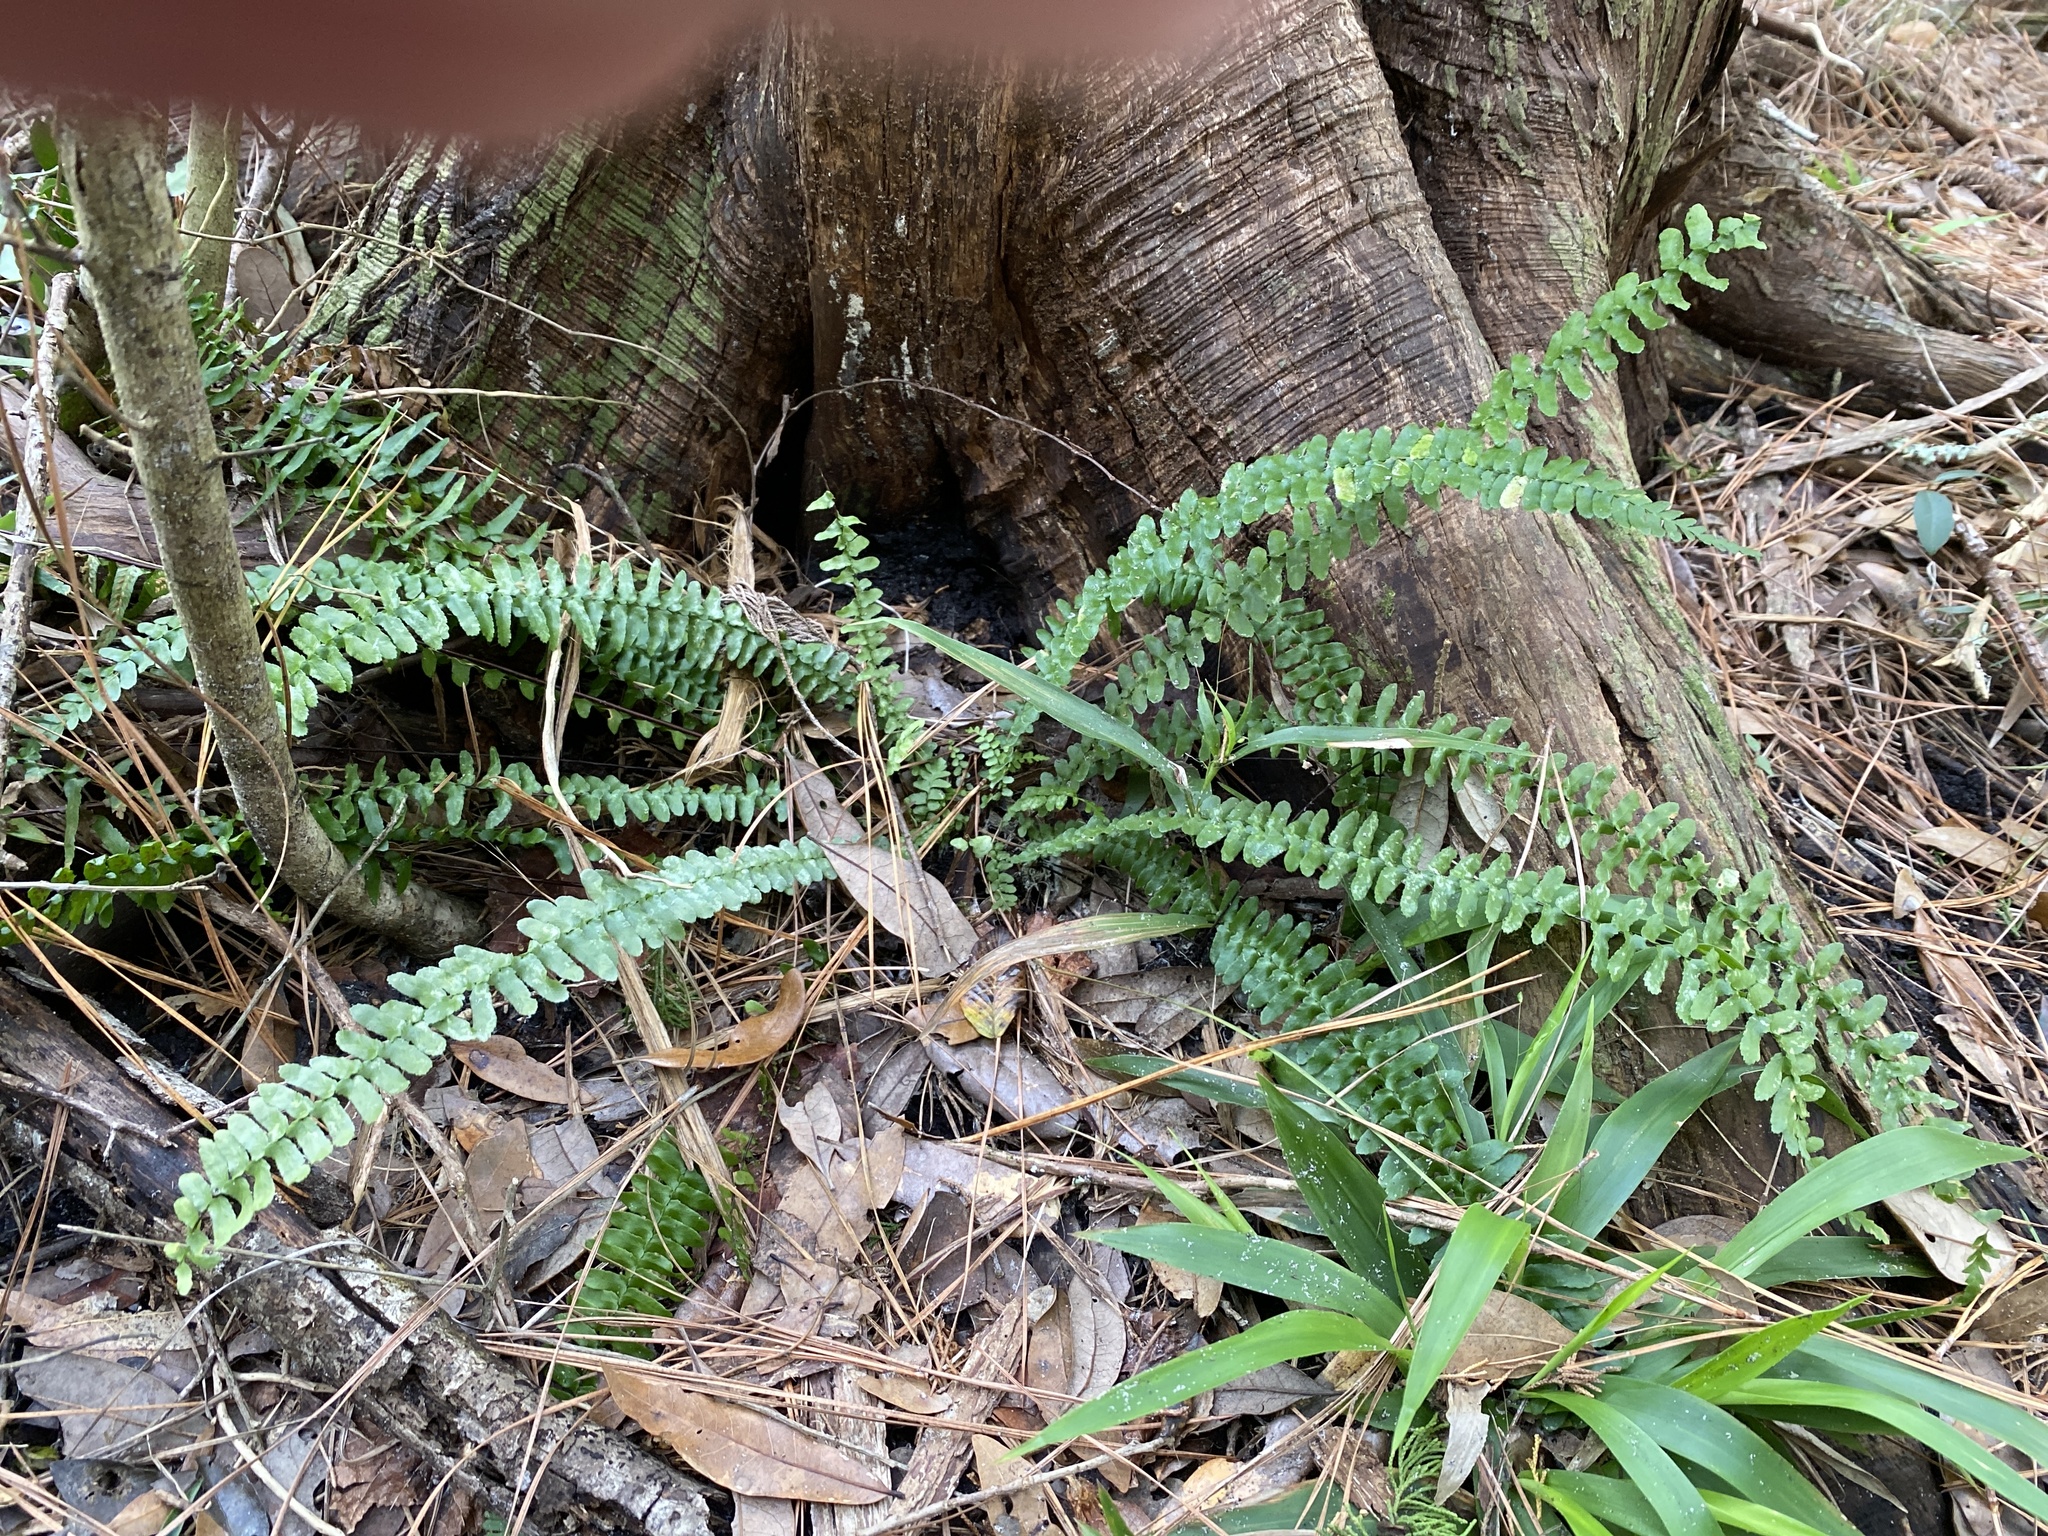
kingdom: Plantae
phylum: Tracheophyta
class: Polypodiopsida
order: Polypodiales
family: Aspleniaceae
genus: Asplenium
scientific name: Asplenium platyneuron
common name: Ebony spleenwort
